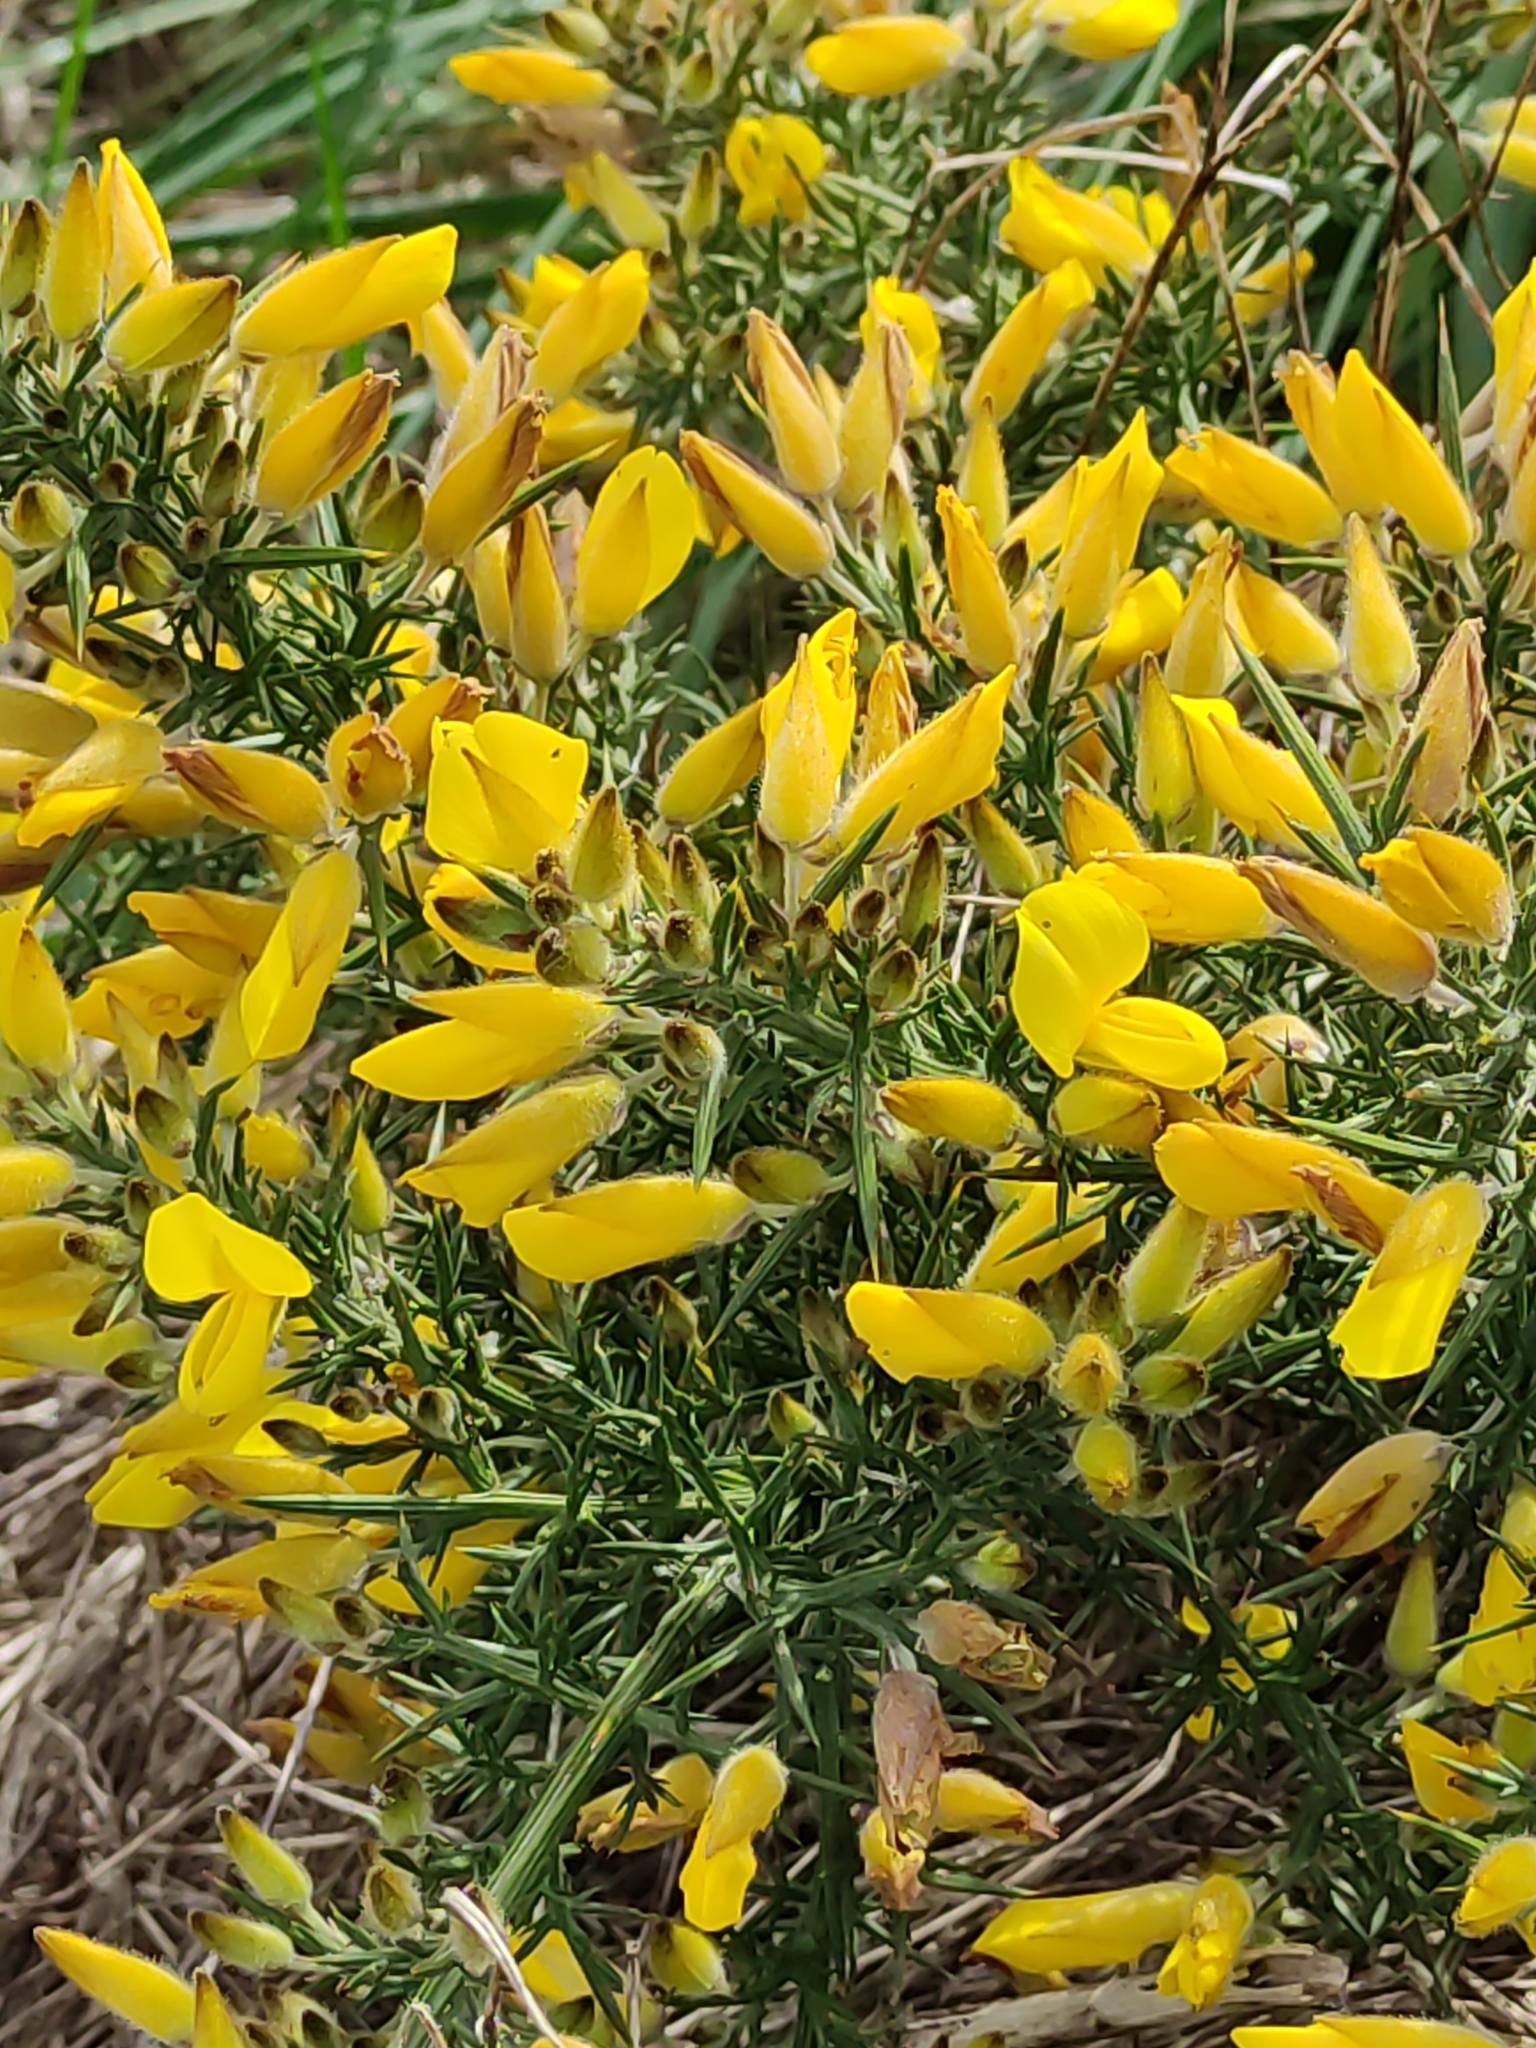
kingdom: Plantae
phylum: Tracheophyta
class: Magnoliopsida
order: Fabales
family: Fabaceae
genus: Ulex
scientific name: Ulex europaeus
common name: Common gorse
